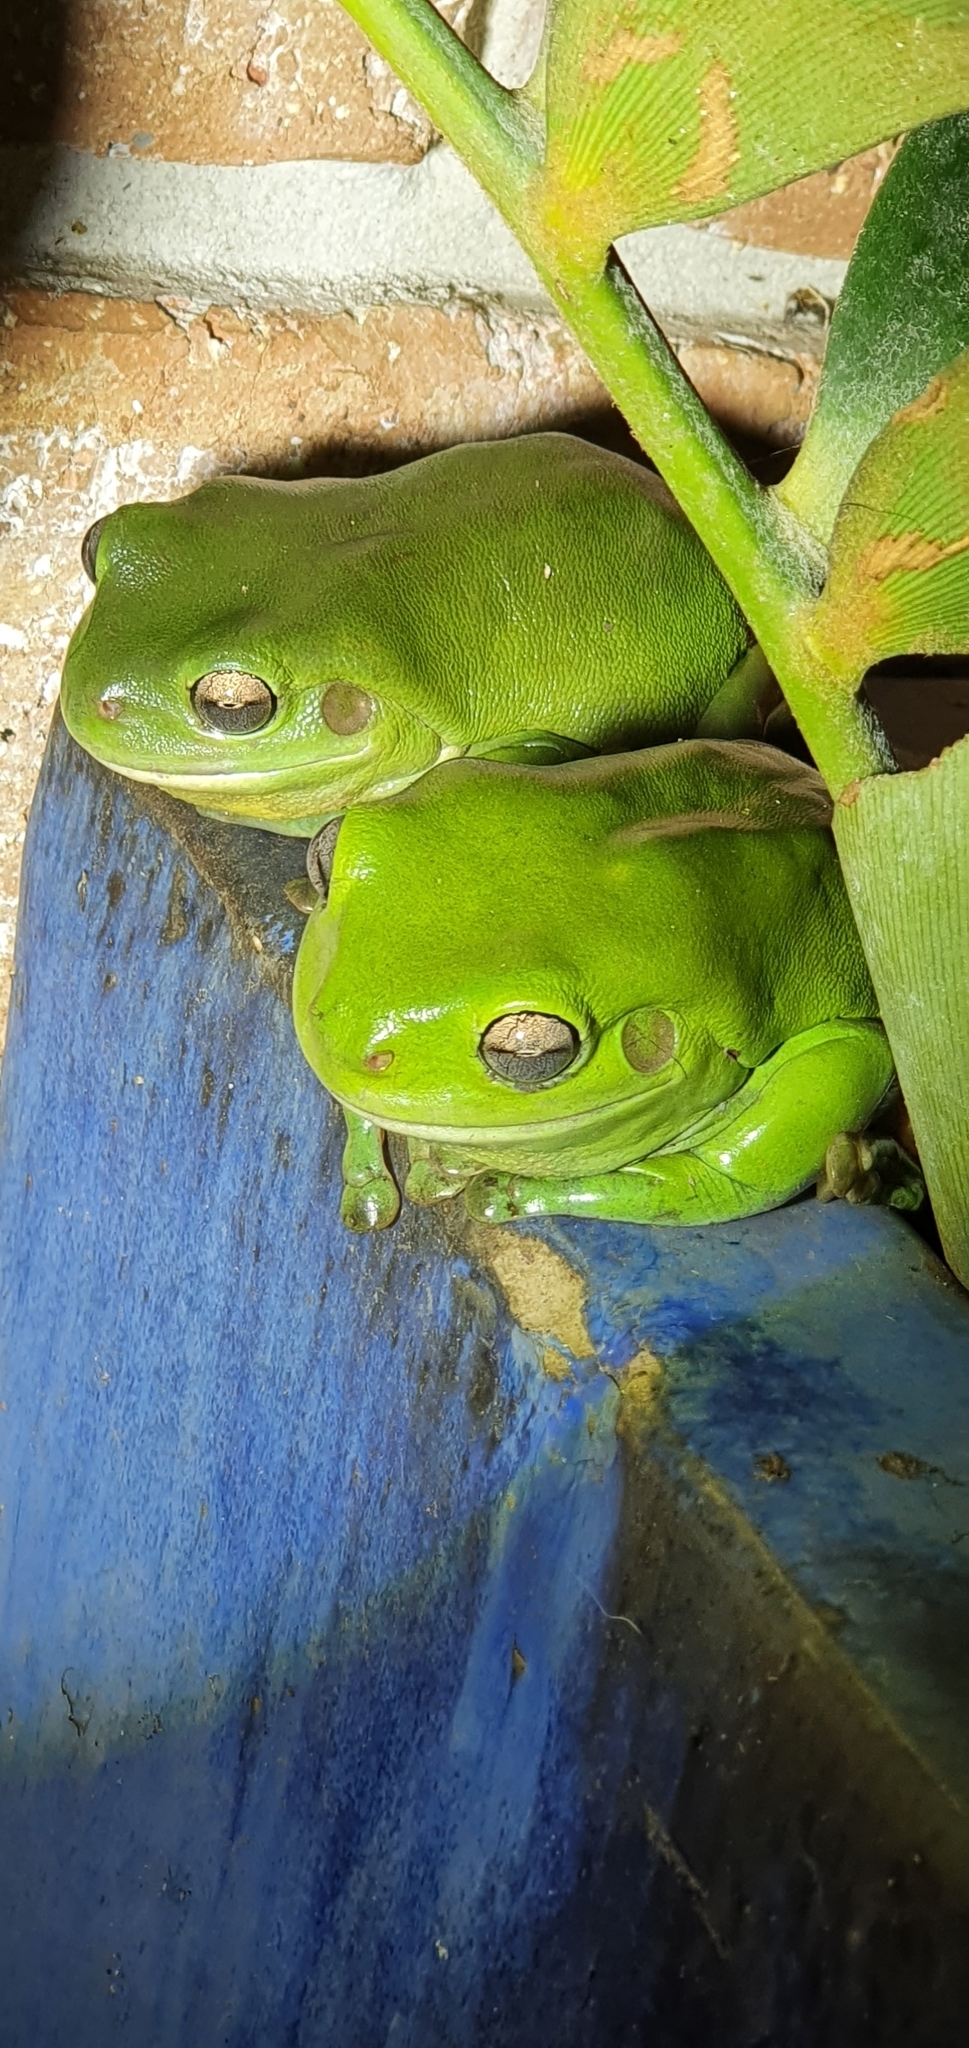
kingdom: Animalia
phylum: Chordata
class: Amphibia
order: Anura
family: Pelodryadidae
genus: Ranoidea
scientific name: Ranoidea caerulea
